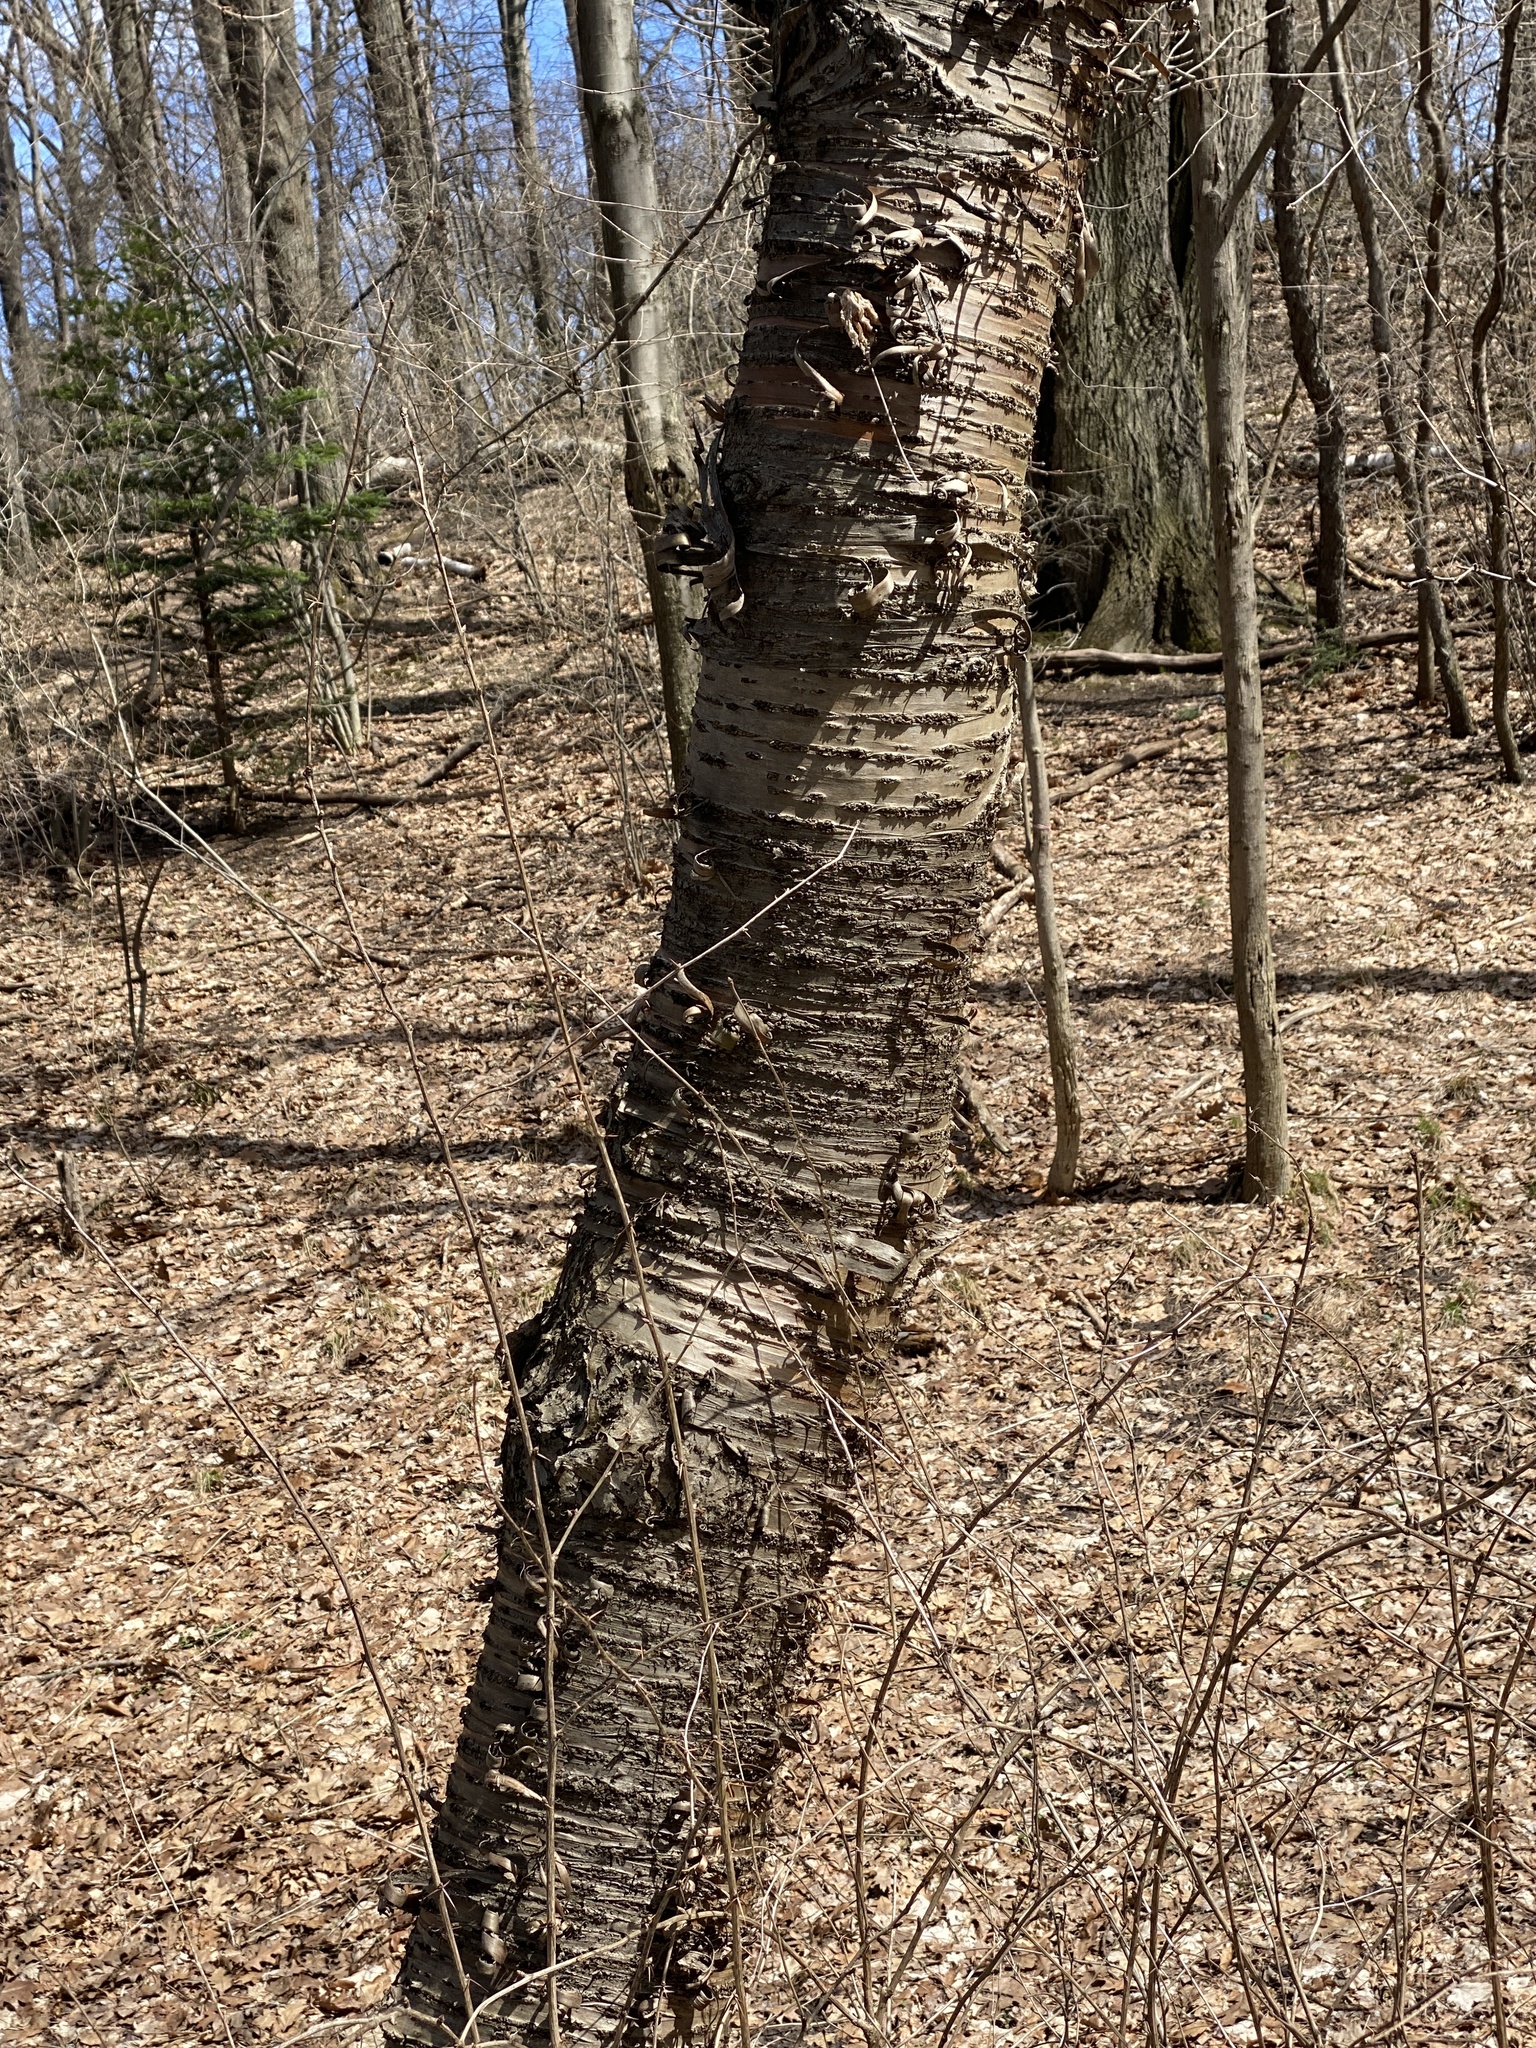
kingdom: Plantae
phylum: Tracheophyta
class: Magnoliopsida
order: Rosales
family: Rosaceae
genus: Prunus
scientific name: Prunus avium
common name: Sweet cherry
